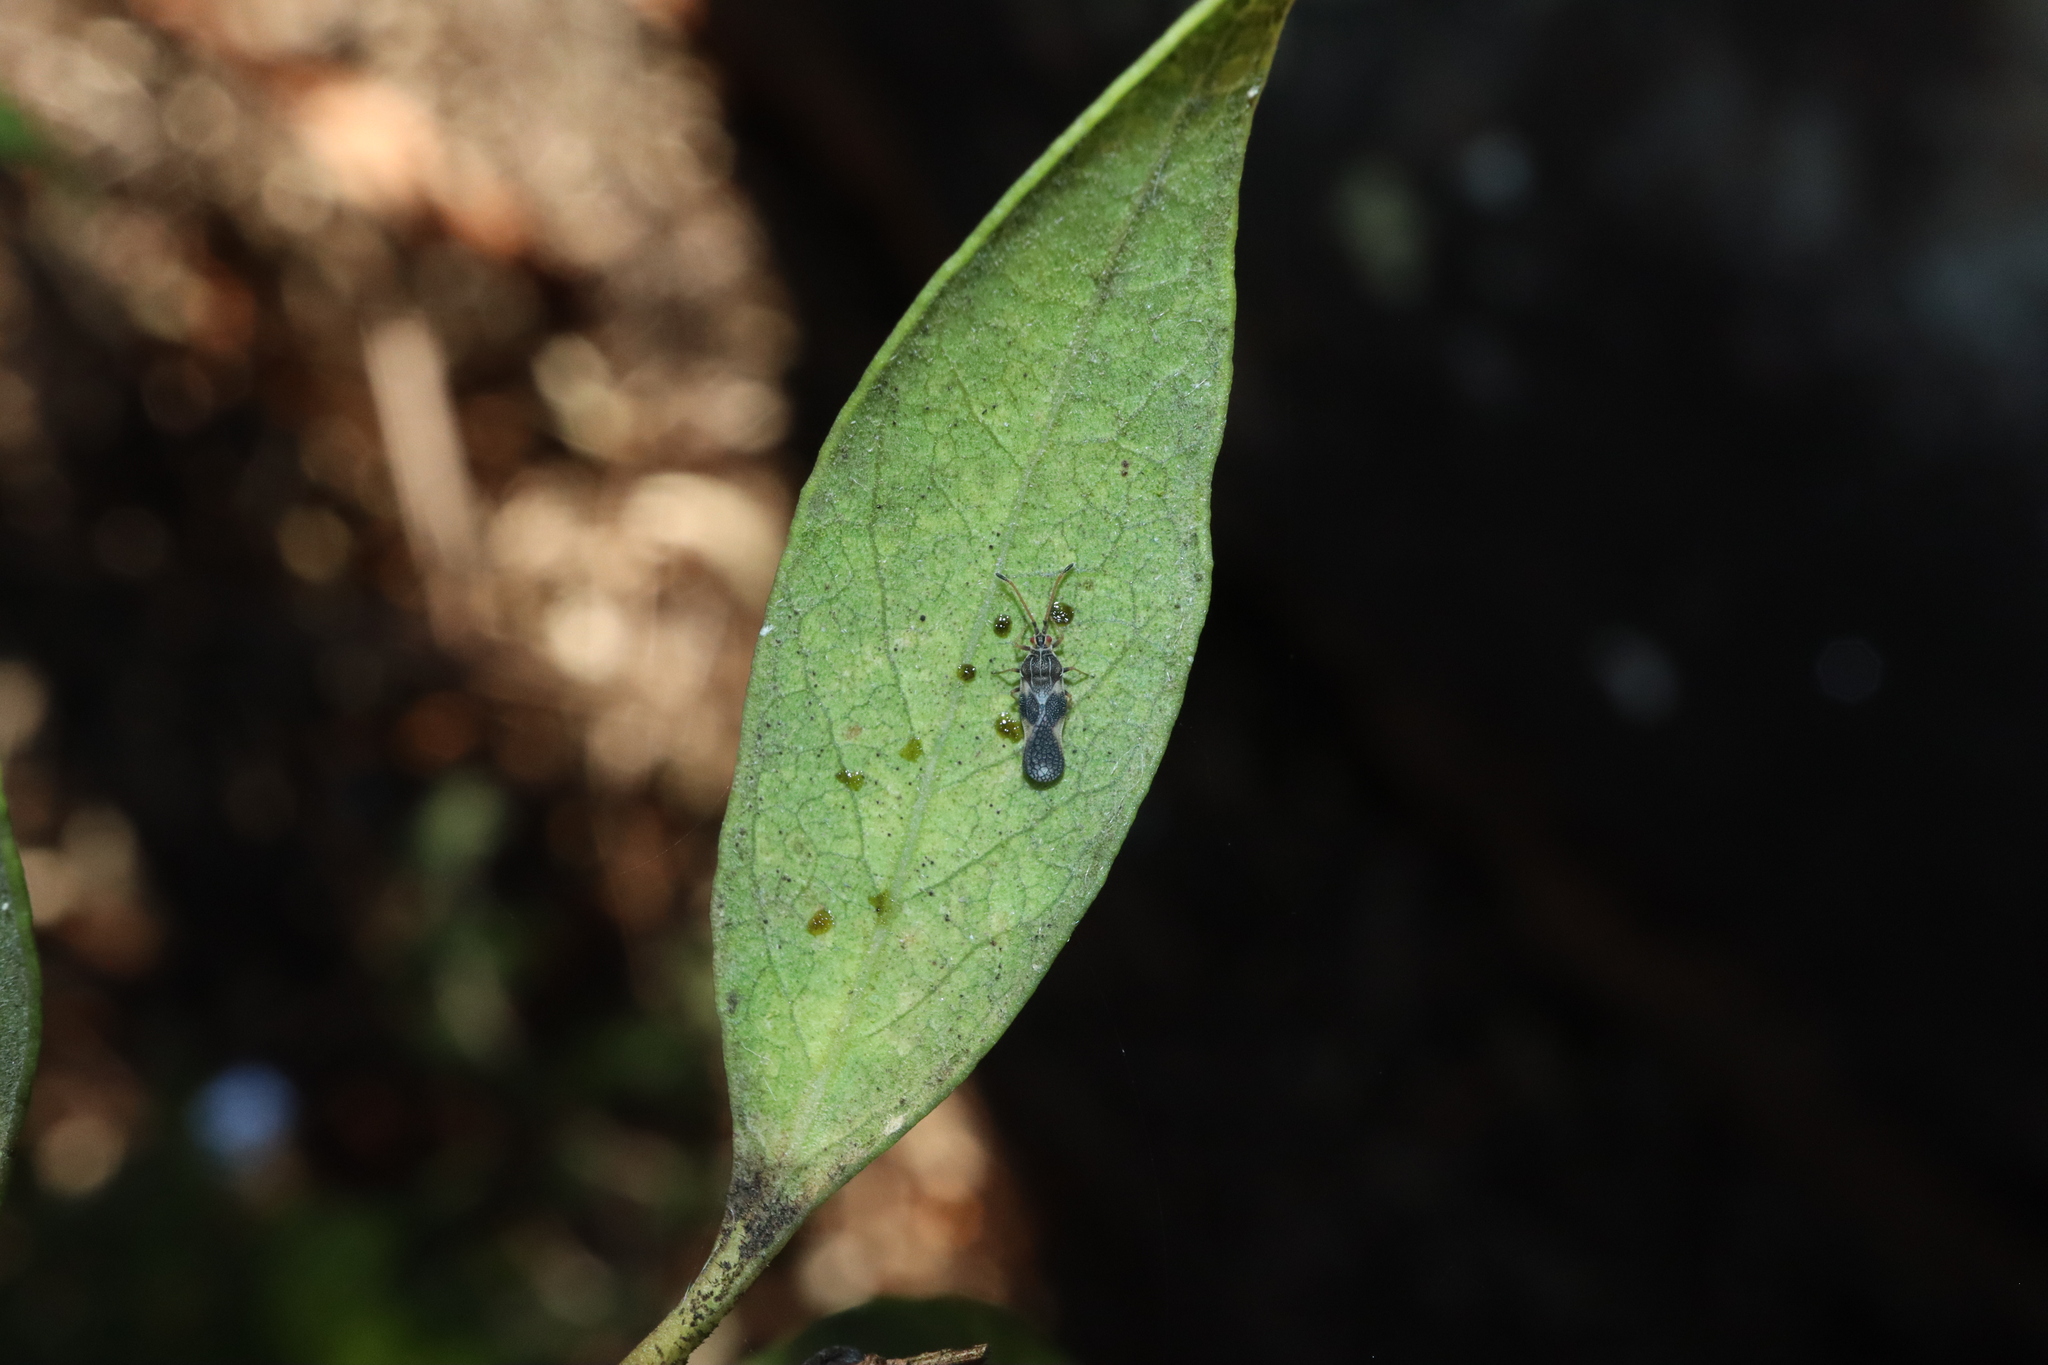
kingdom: Animalia
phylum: Arthropoda
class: Insecta
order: Hemiptera
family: Tingidae
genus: Froggattia
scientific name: Froggattia olivinia
